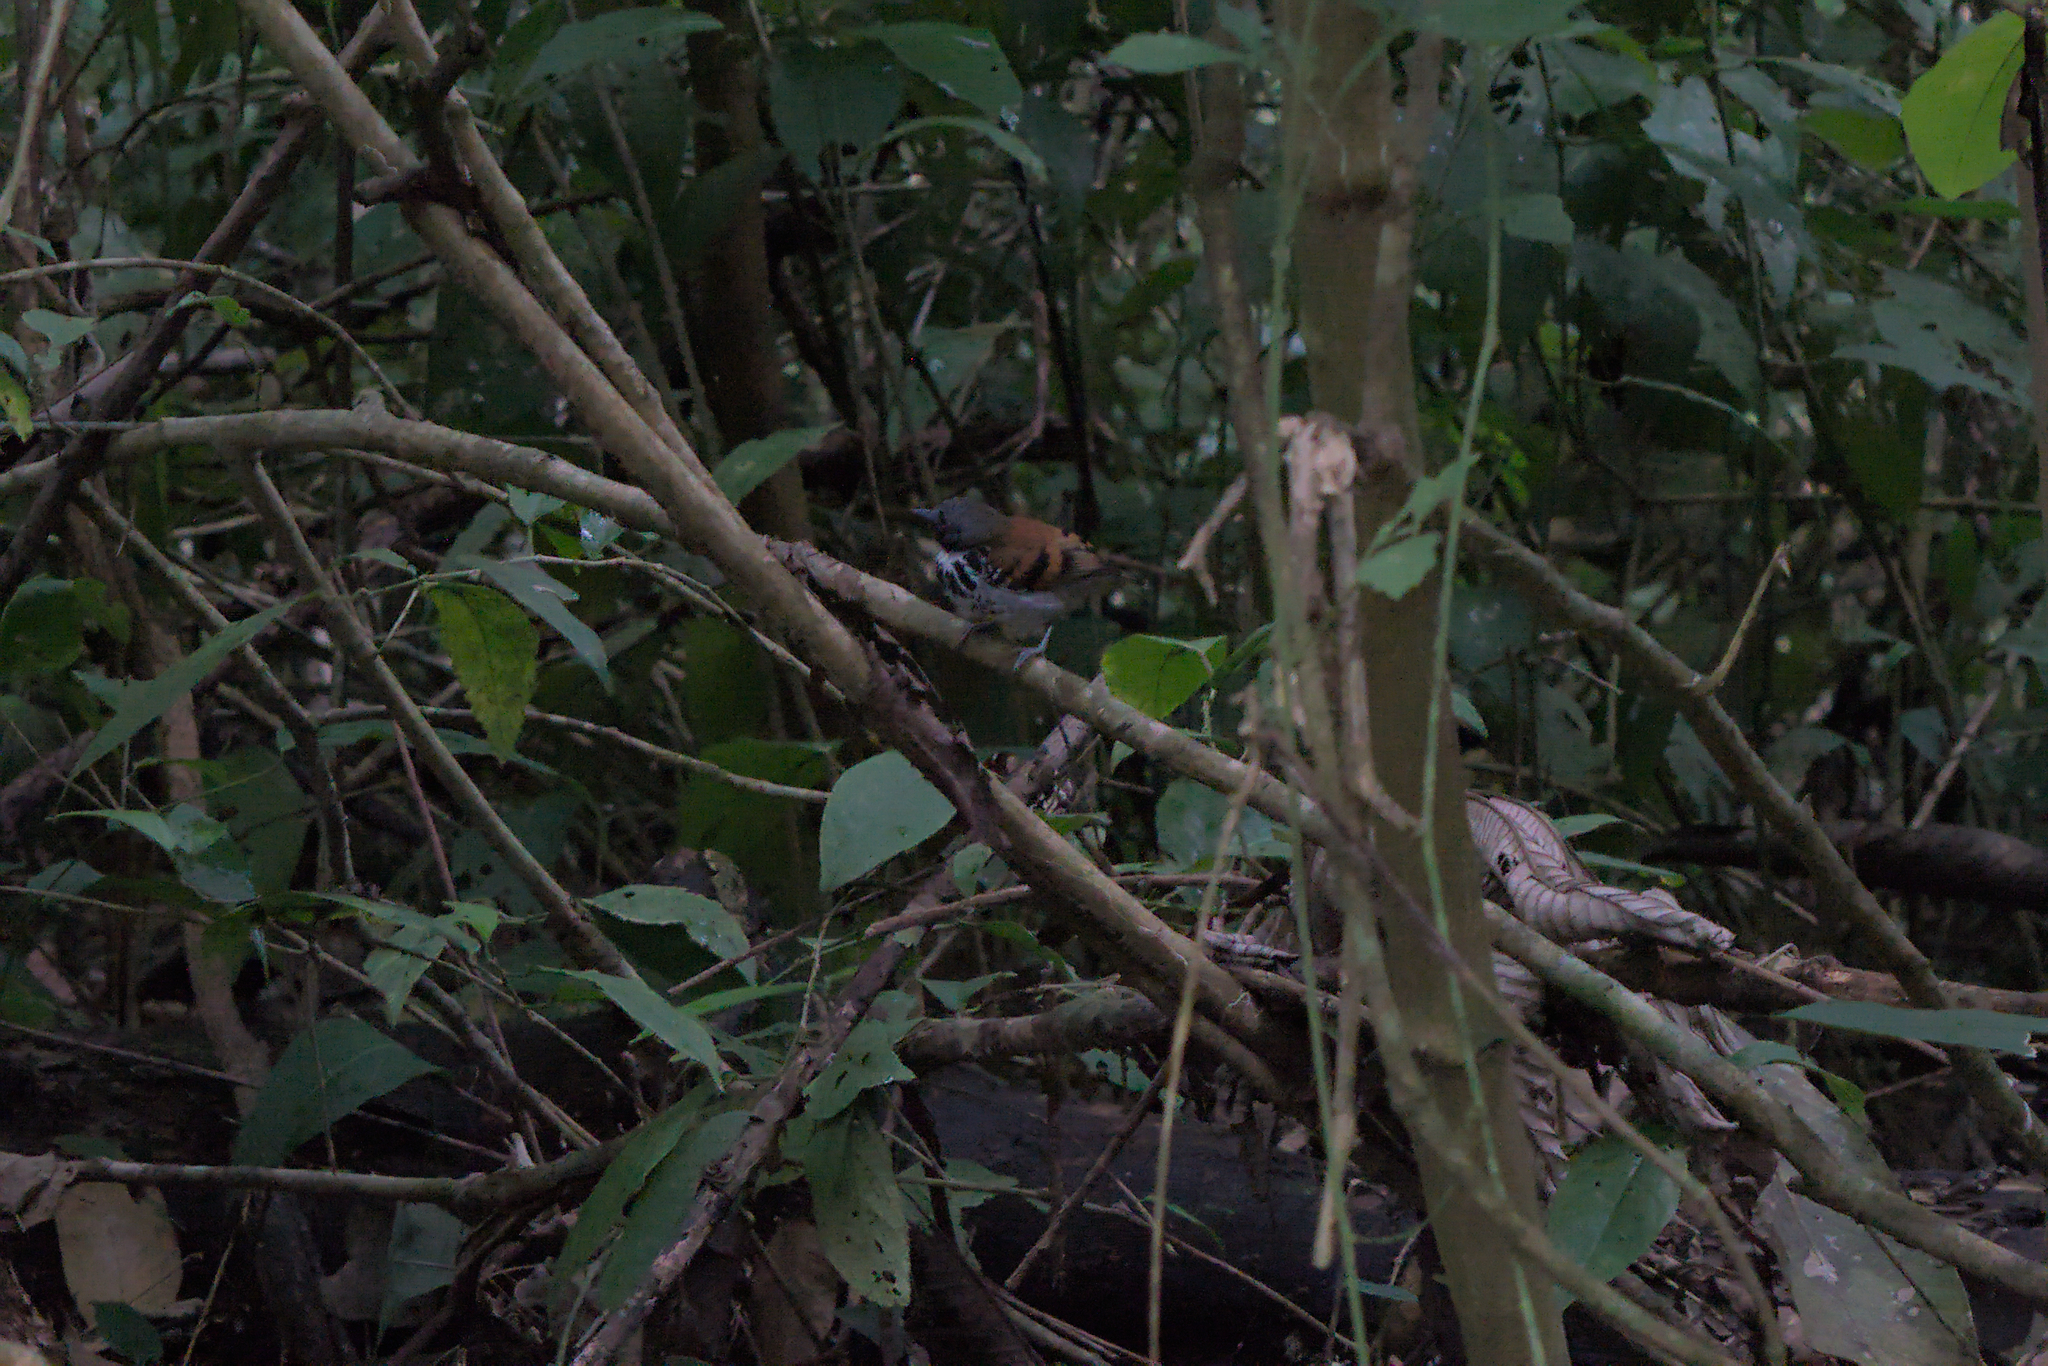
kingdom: Animalia
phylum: Chordata
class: Aves
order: Passeriformes
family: Thamnophilidae
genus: Hylophylax
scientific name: Hylophylax naevioides
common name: Spotted antbird
